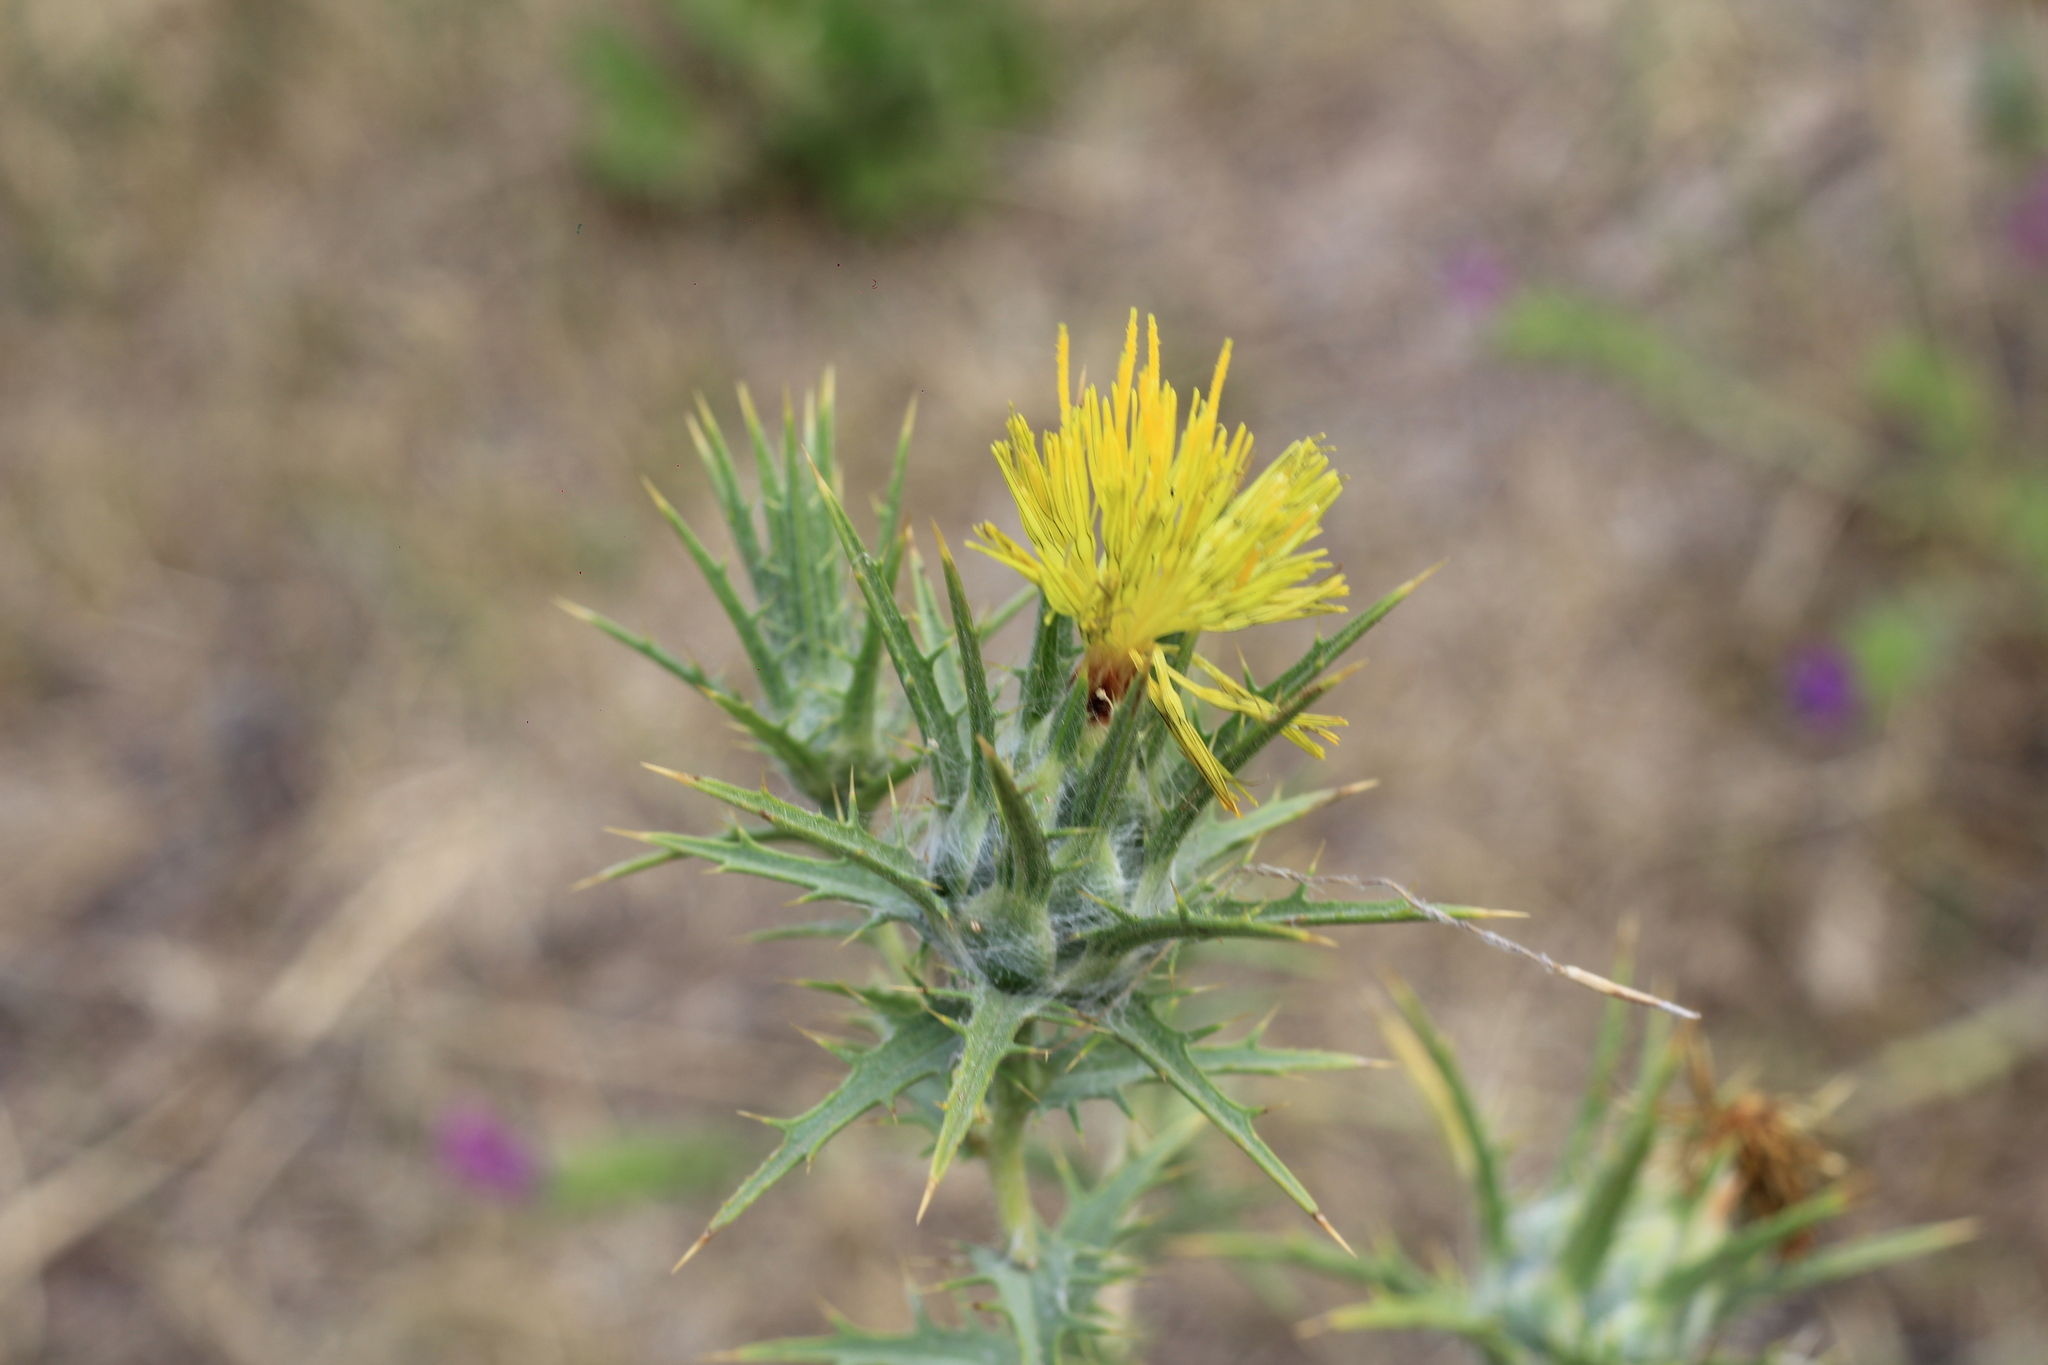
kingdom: Plantae
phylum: Tracheophyta
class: Magnoliopsida
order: Asterales
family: Asteraceae
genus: Carthamus
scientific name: Carthamus lanatus
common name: Downy safflower
